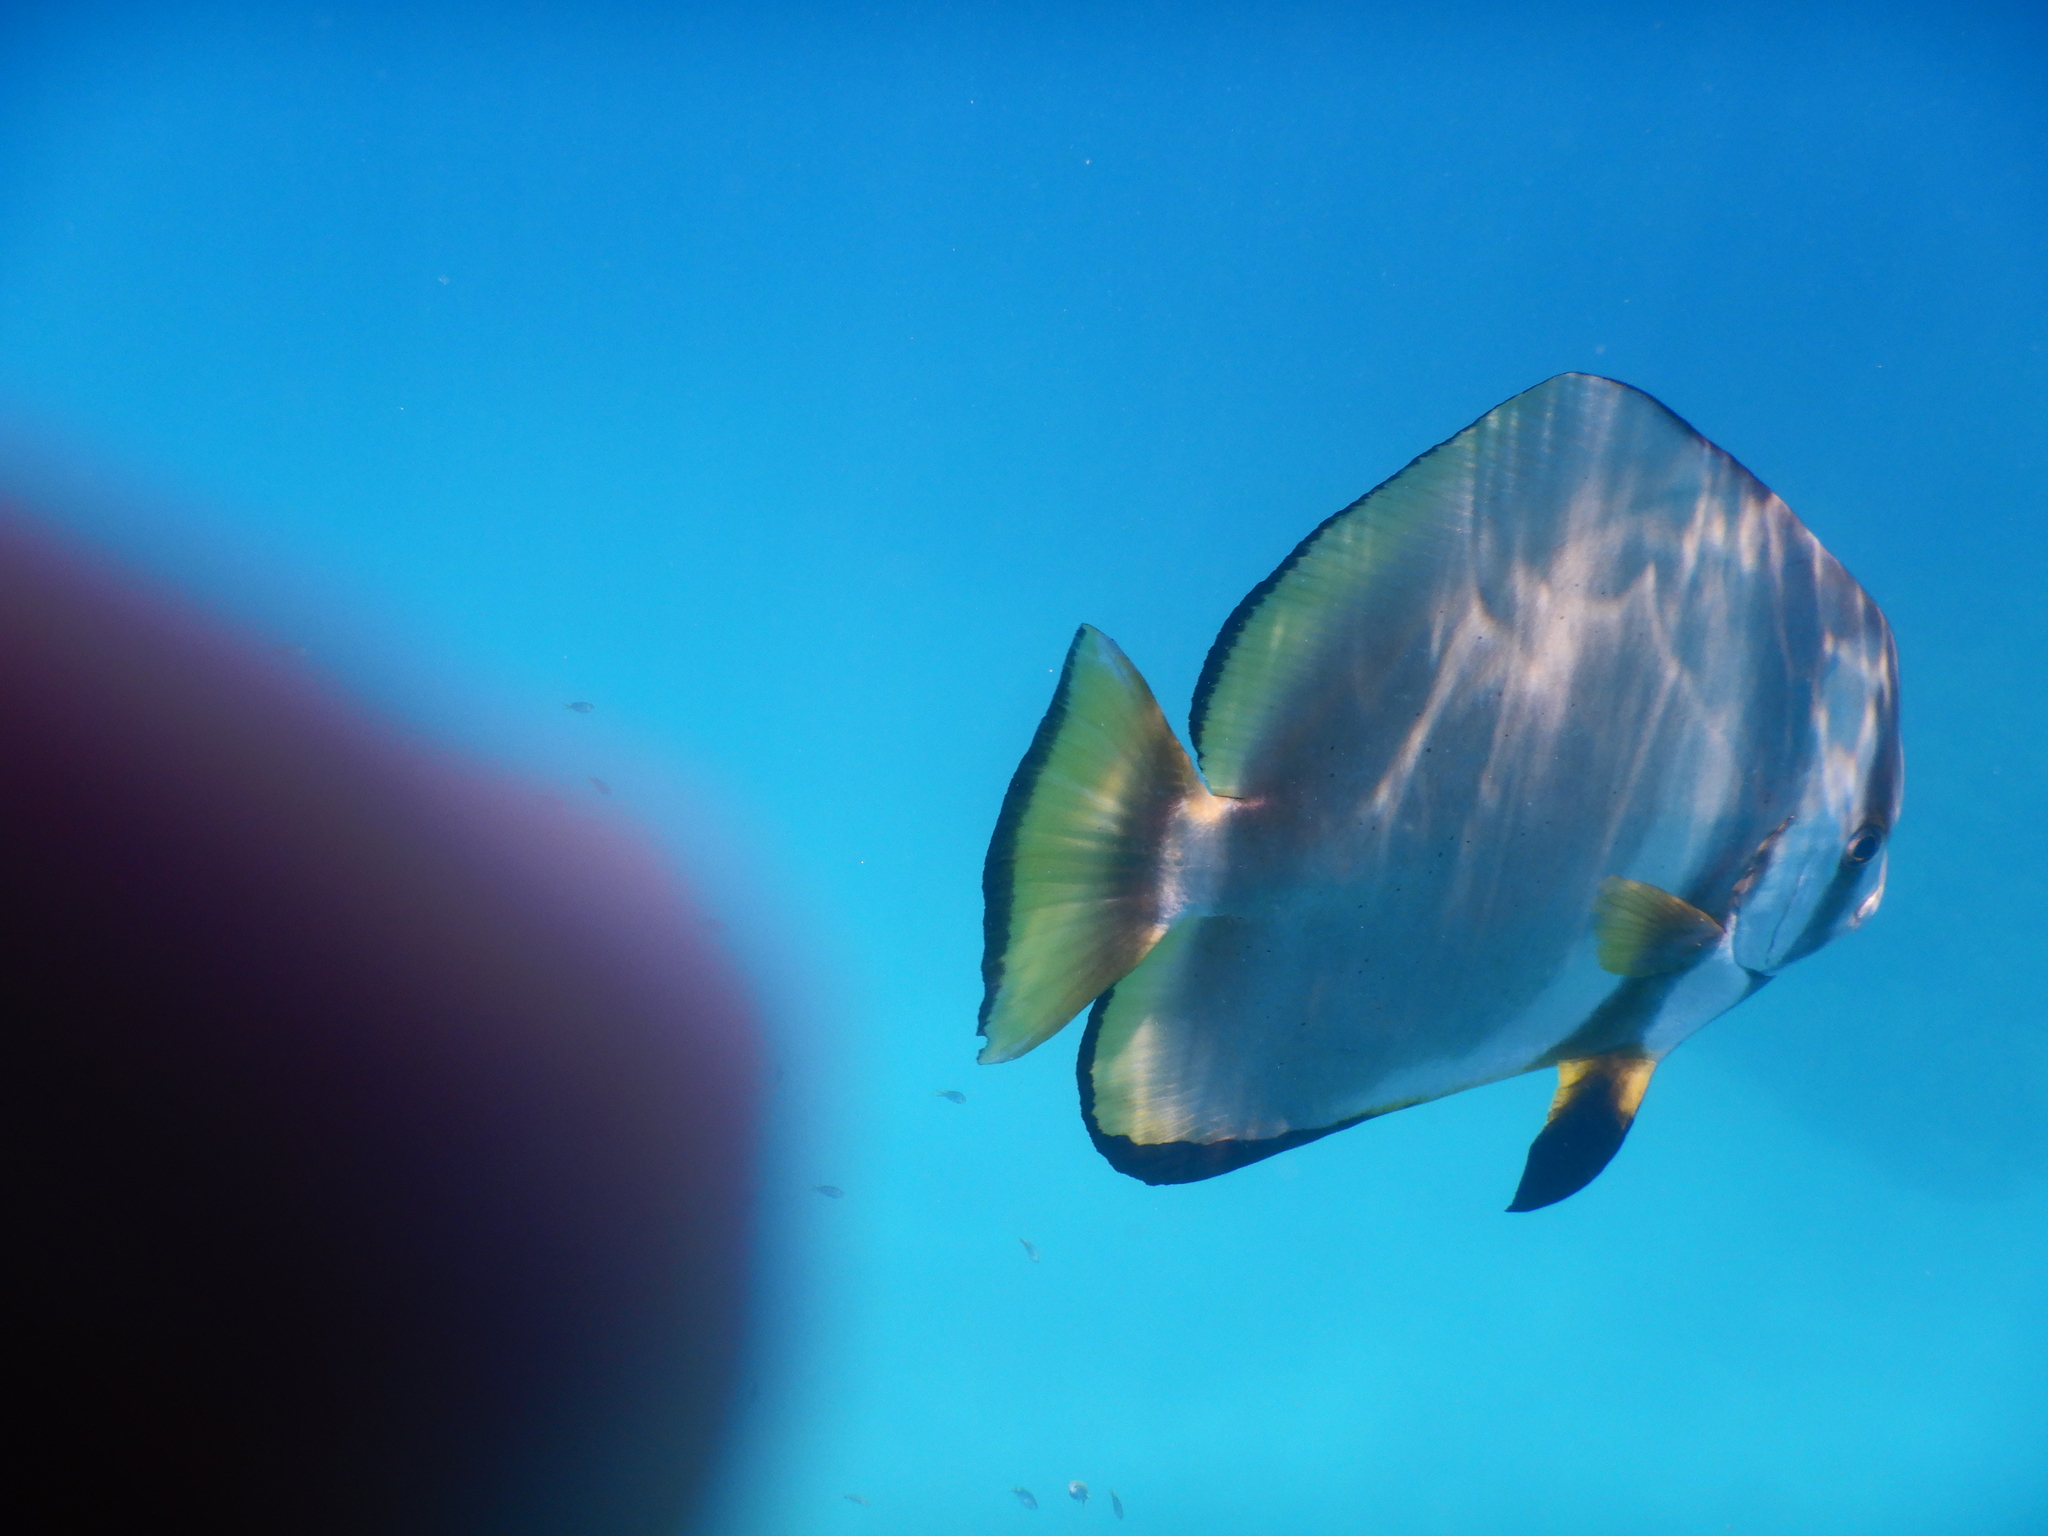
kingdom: Animalia
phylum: Chordata
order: Perciformes
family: Ephippidae
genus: Platax
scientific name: Platax orbicularis
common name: Batfish
